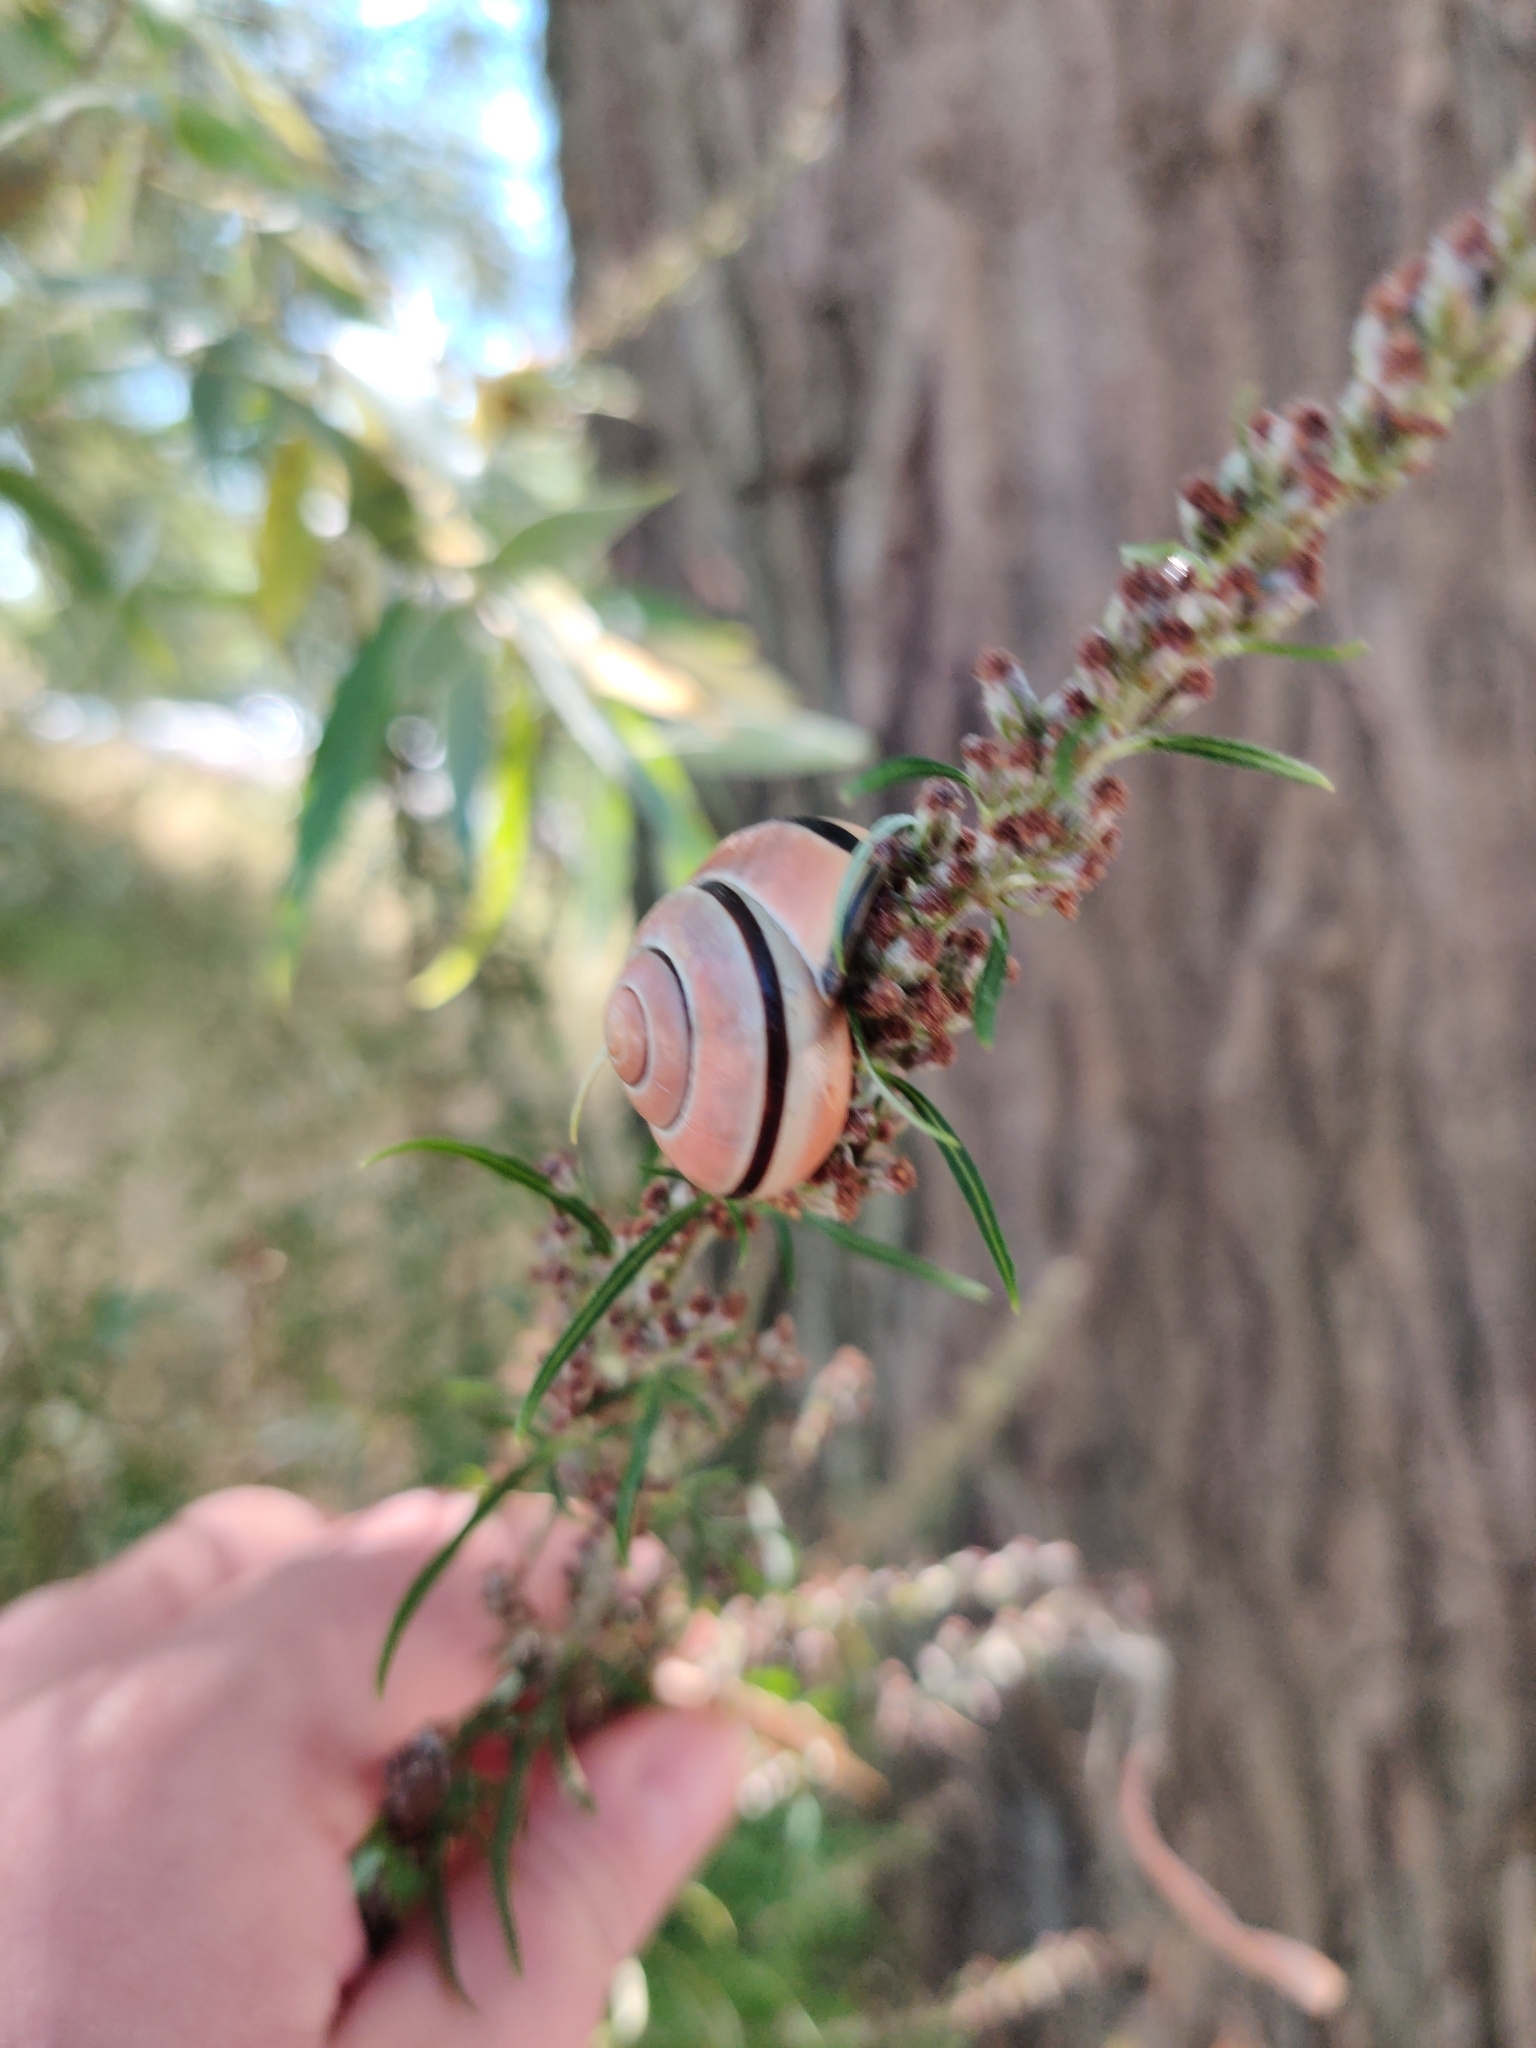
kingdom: Animalia
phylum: Mollusca
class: Gastropoda
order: Stylommatophora
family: Helicidae
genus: Cepaea
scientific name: Cepaea nemoralis
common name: Grovesnail
